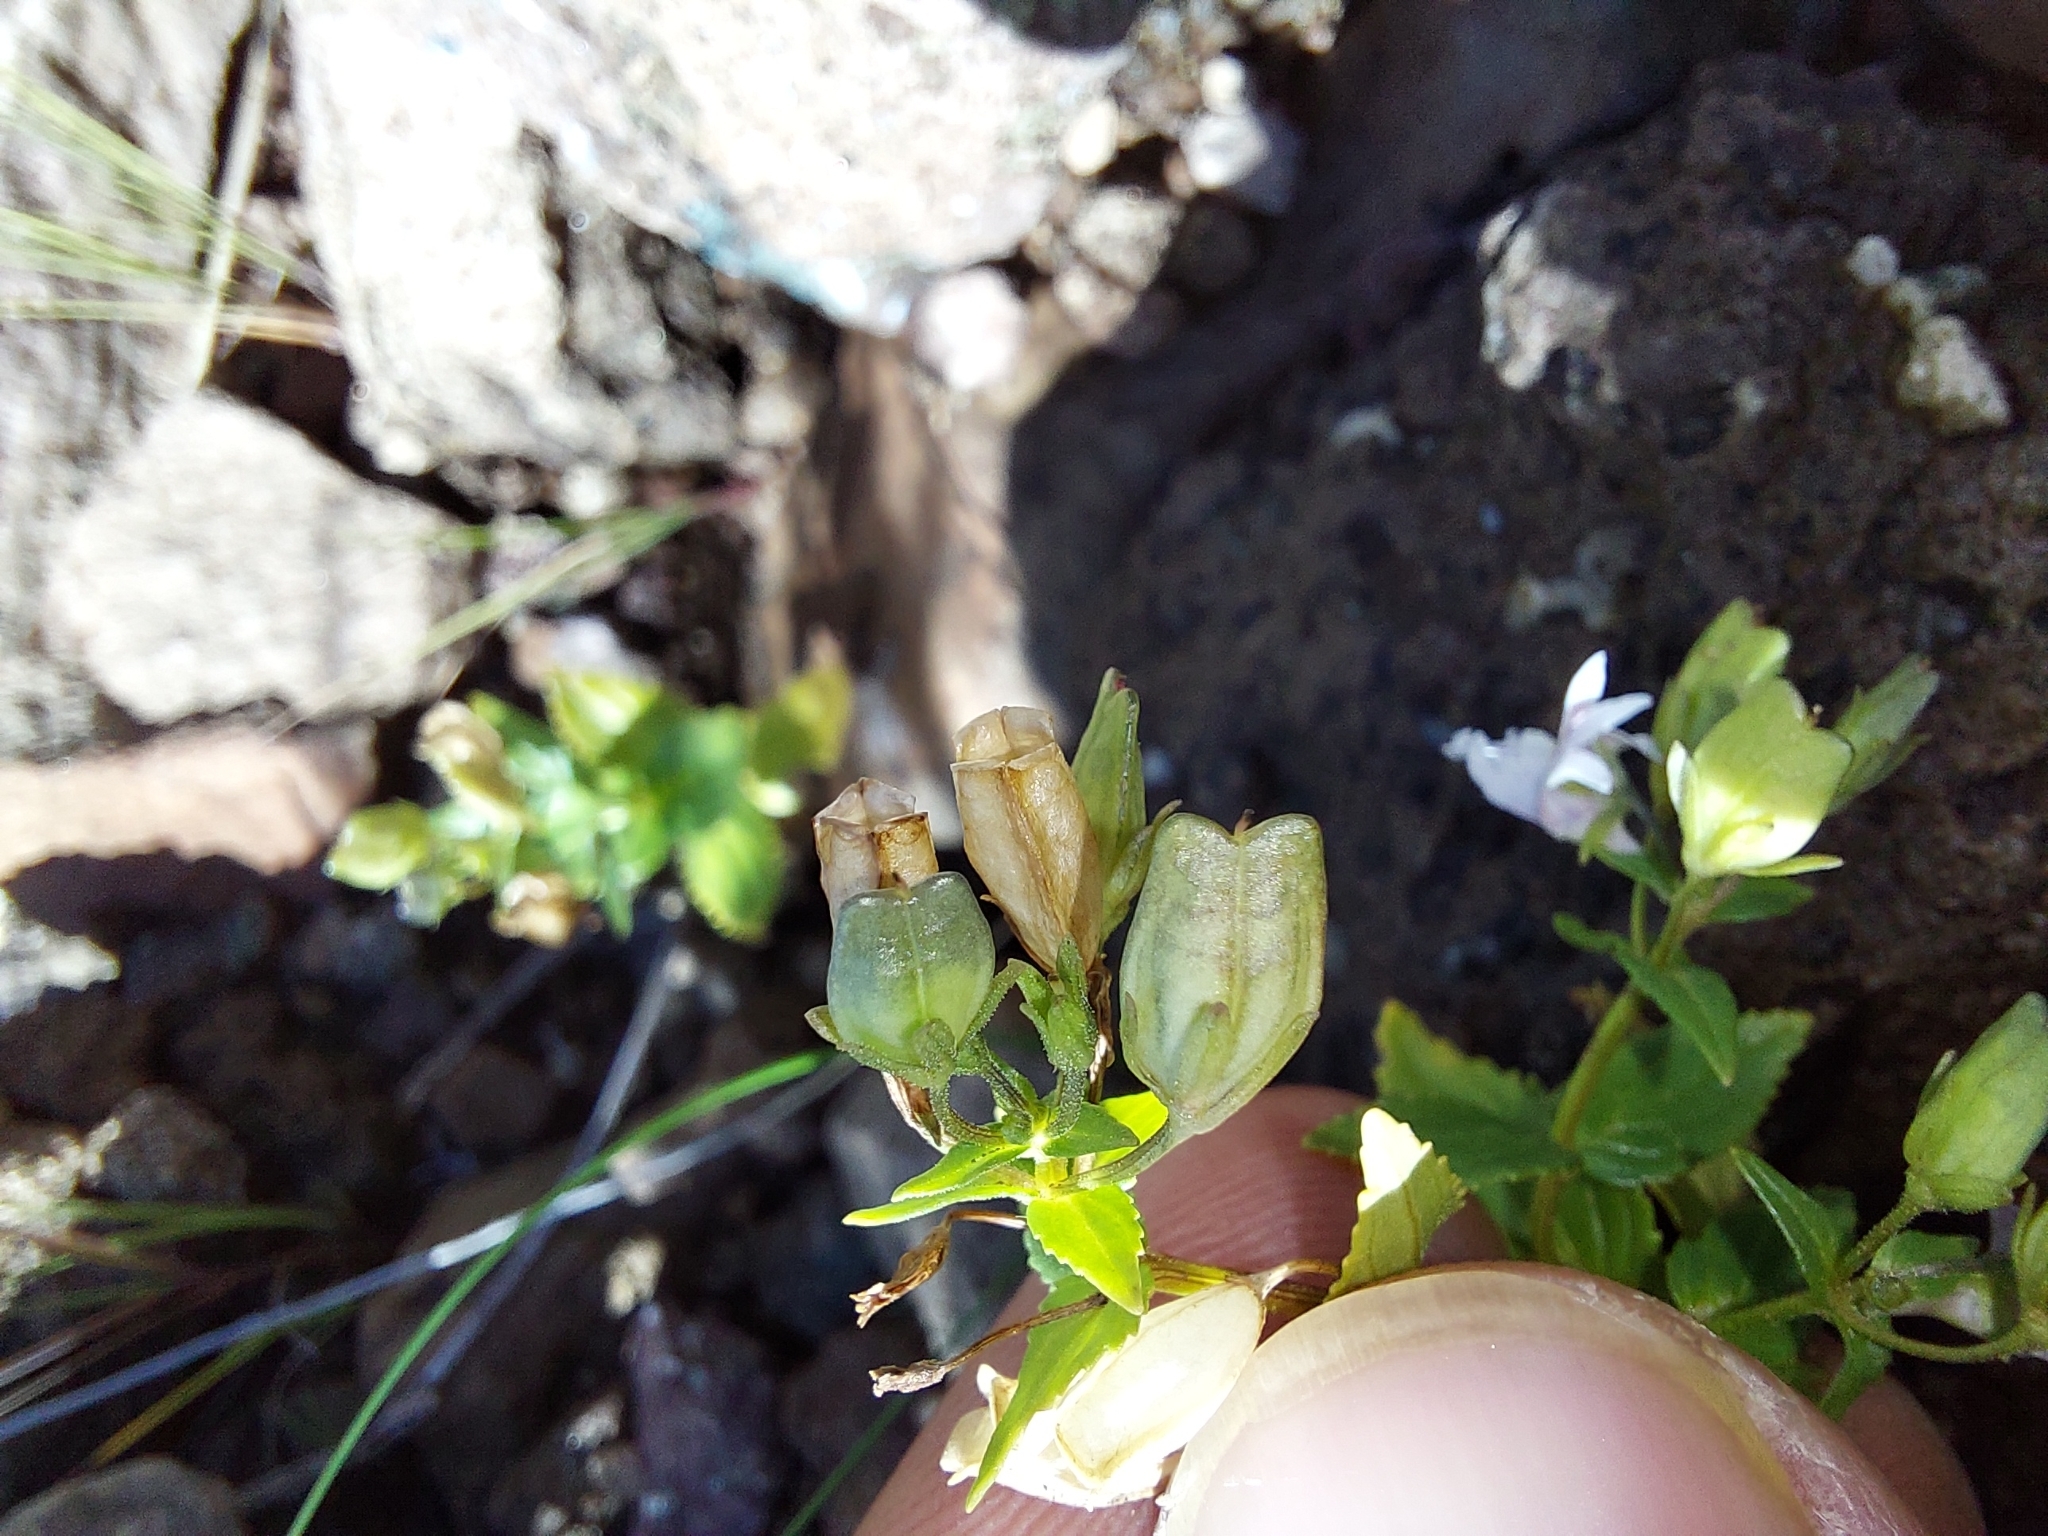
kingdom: Plantae
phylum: Tracheophyta
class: Magnoliopsida
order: Lamiales
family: Scrophulariaceae
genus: Nemesia
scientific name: Nemesia rupicola
